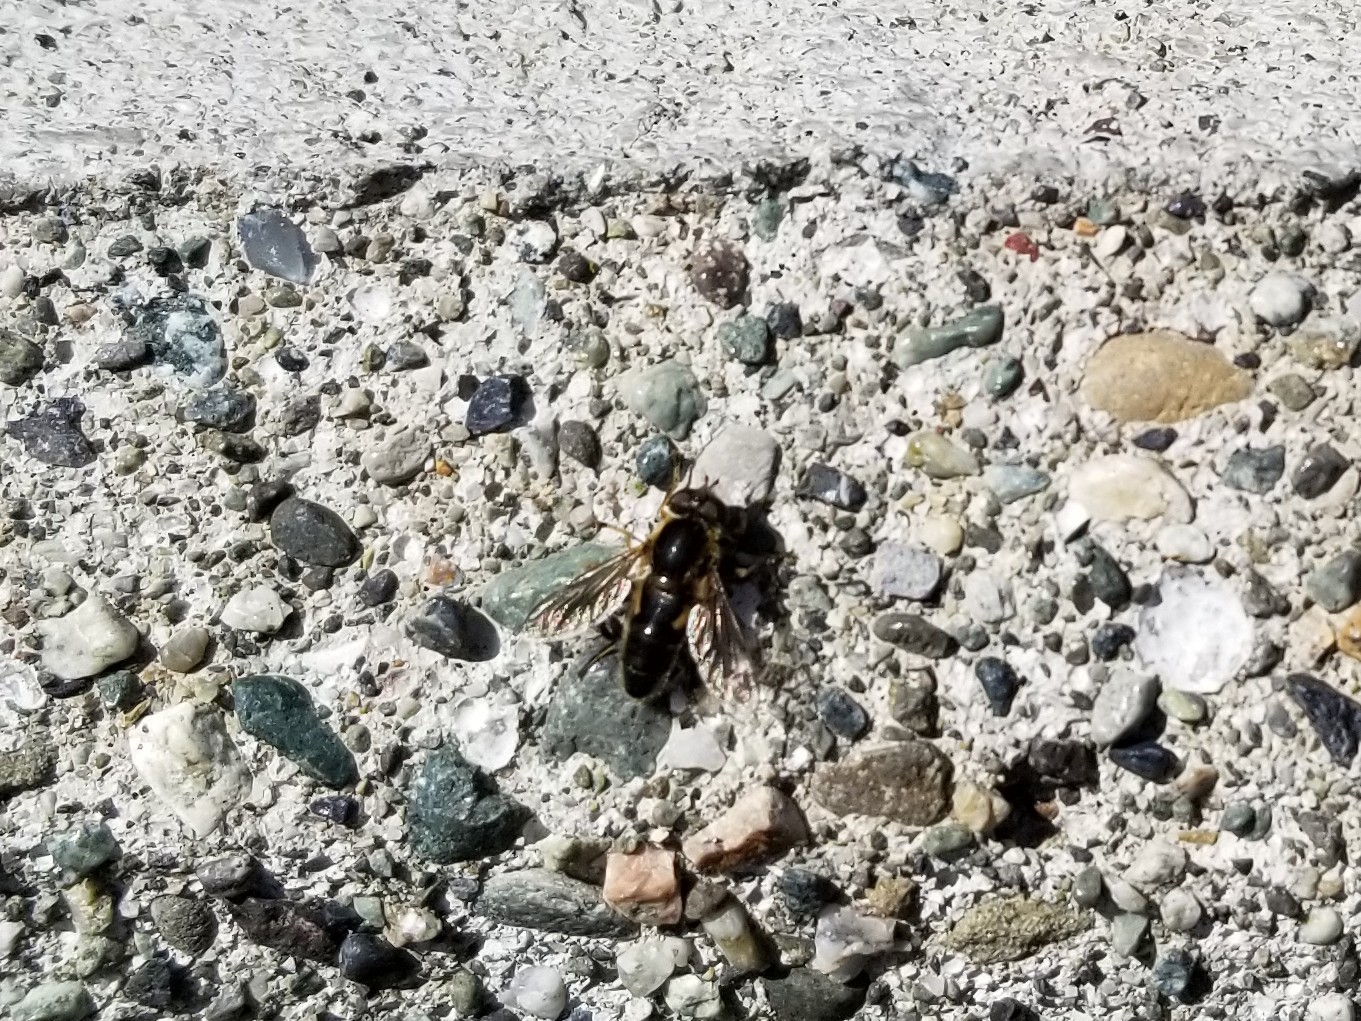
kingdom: Animalia
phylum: Arthropoda
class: Insecta
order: Diptera
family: Syrphidae
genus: Anasimyia
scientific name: Anasimyia perfidiosus
